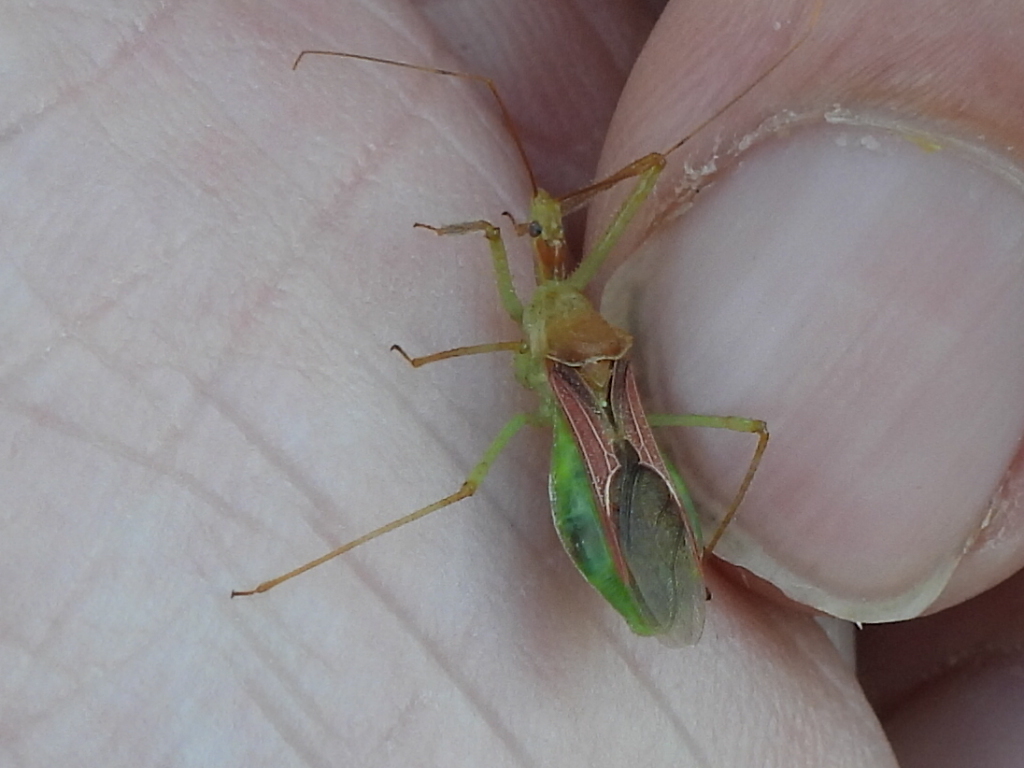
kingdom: Animalia
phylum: Arthropoda
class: Insecta
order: Hemiptera
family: Reduviidae
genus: Zelus
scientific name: Zelus renardii
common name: Assassin bug
